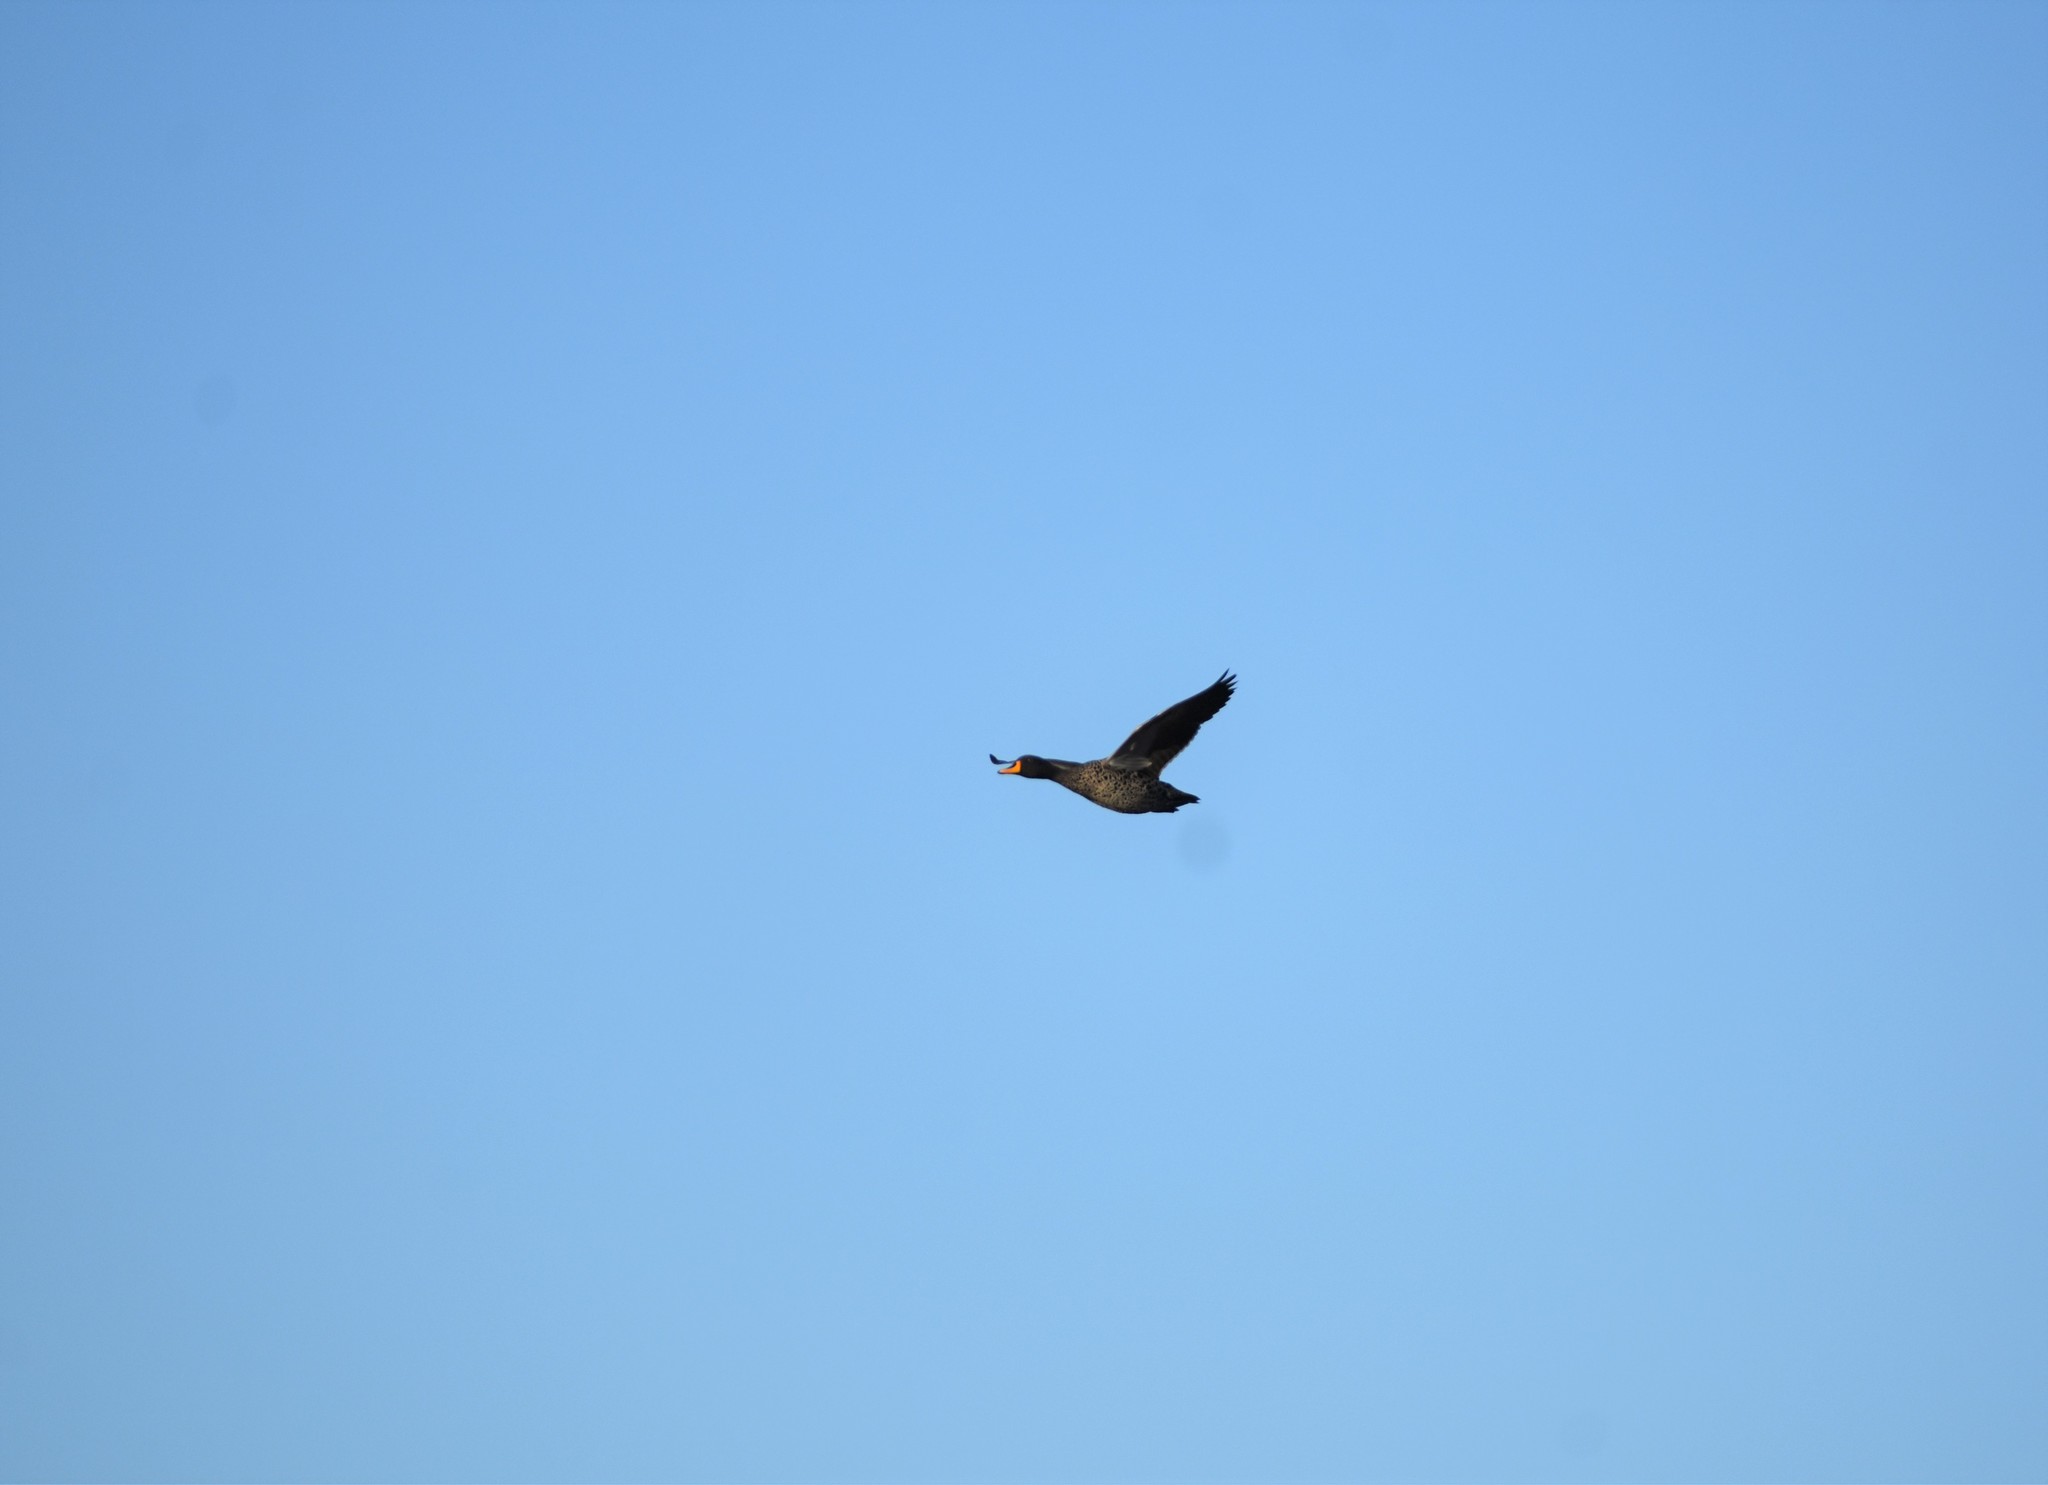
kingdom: Animalia
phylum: Chordata
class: Aves
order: Anseriformes
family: Anatidae
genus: Anas
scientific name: Anas undulata
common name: Yellow-billed duck
